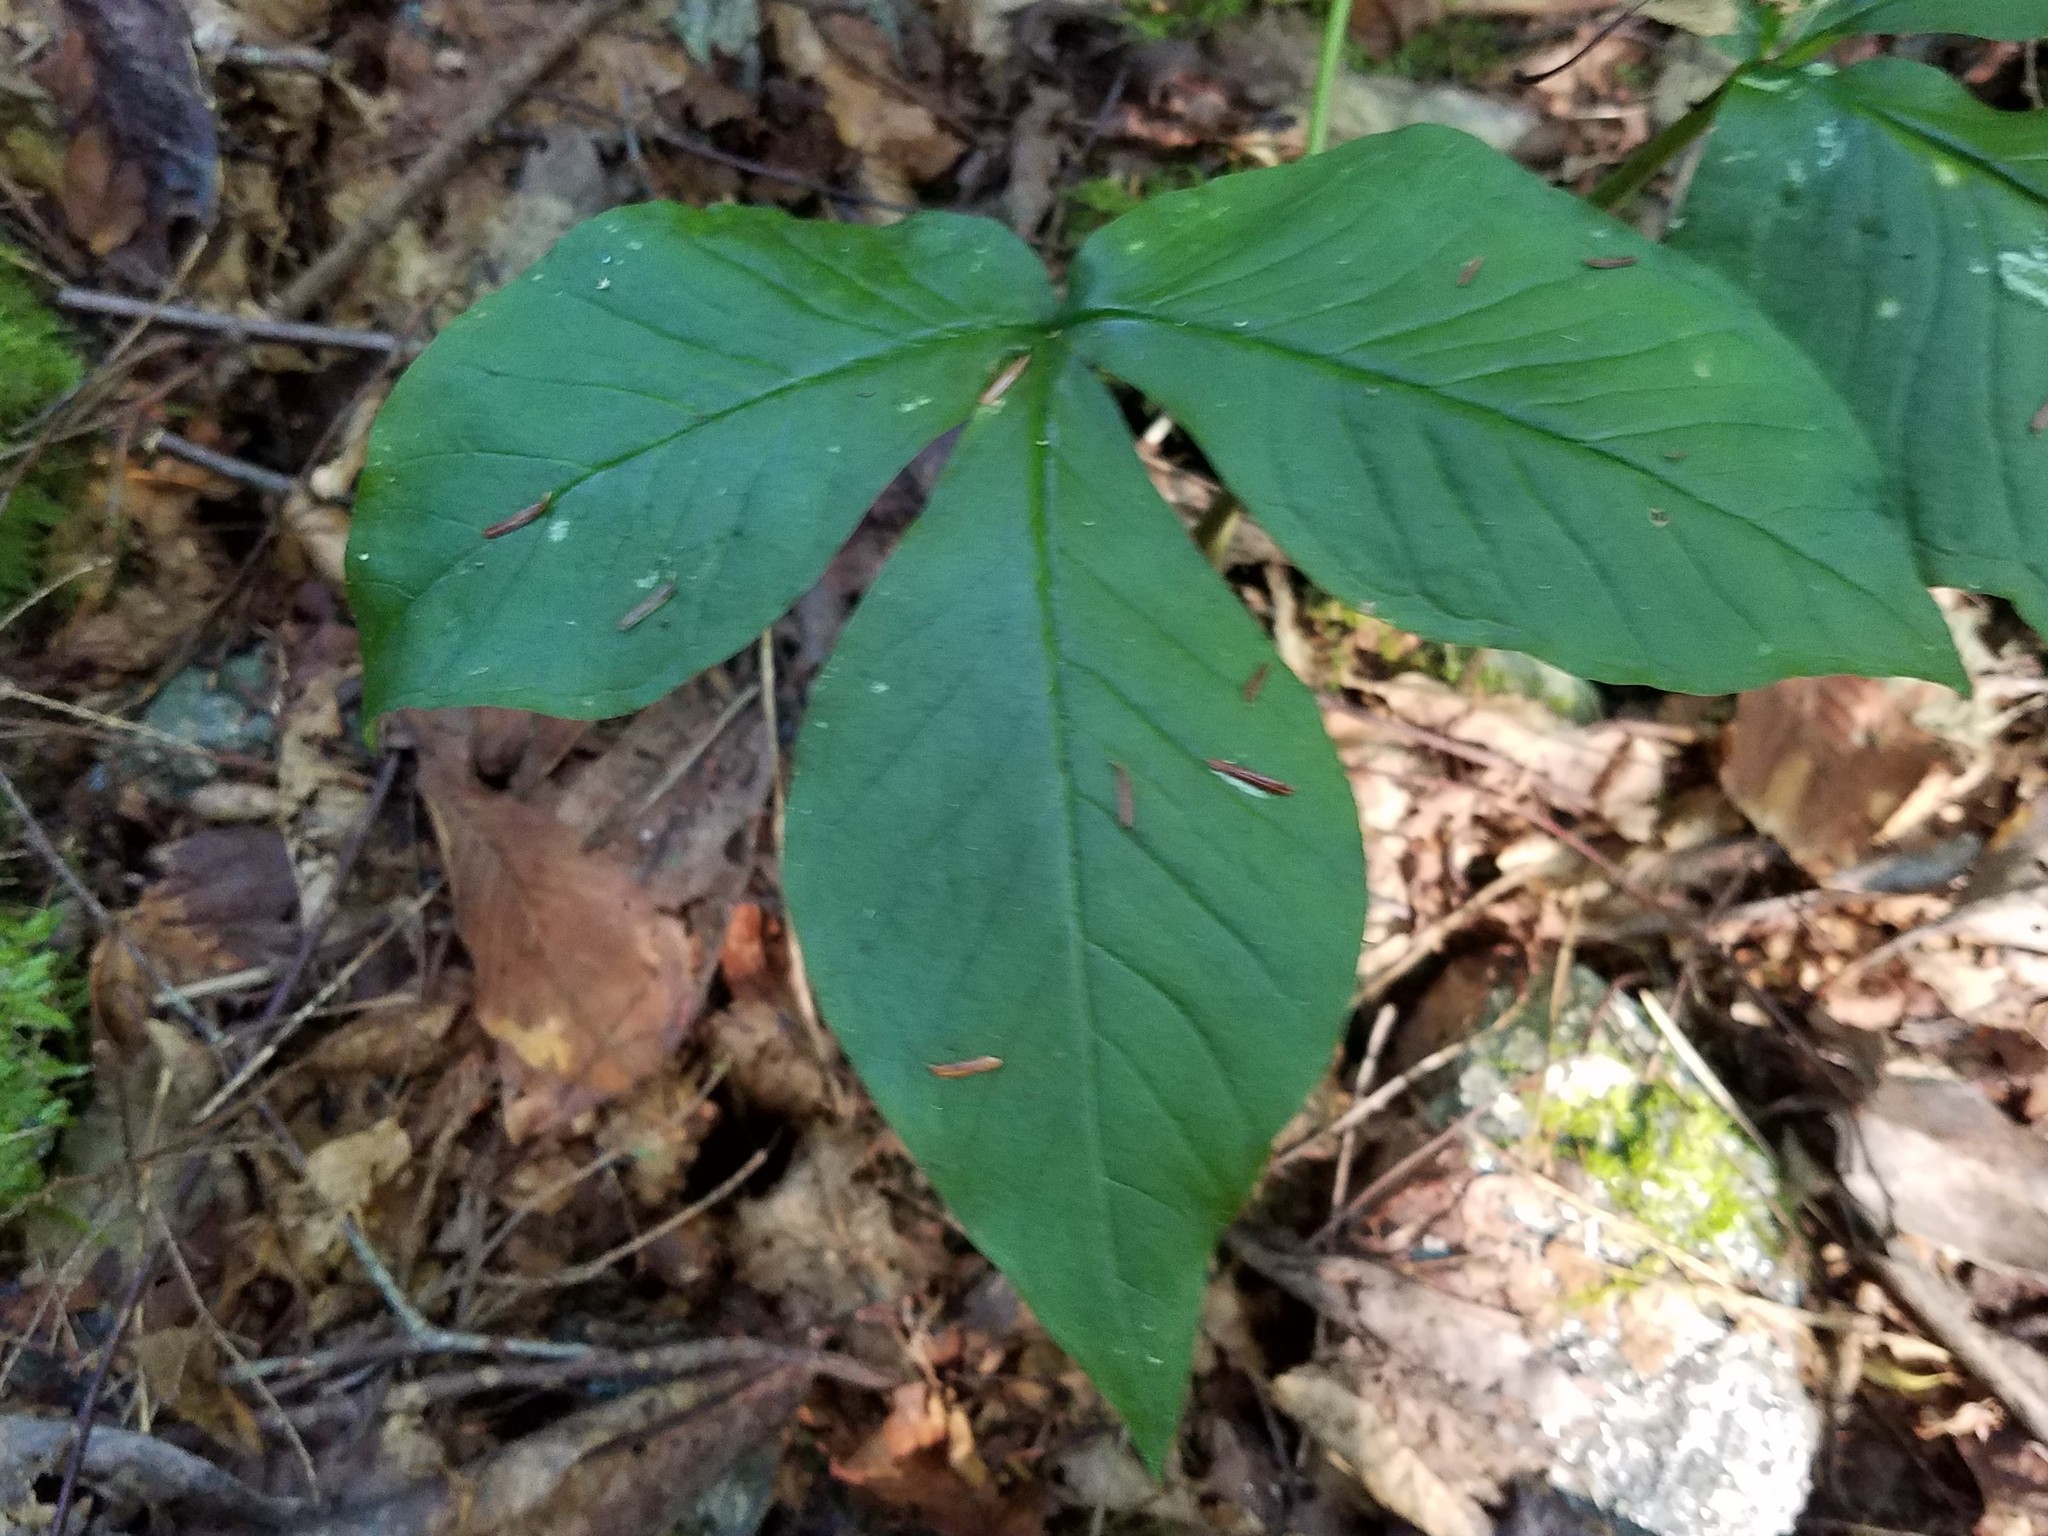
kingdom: Plantae
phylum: Tracheophyta
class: Liliopsida
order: Alismatales
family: Araceae
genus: Arisaema
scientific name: Arisaema triphyllum
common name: Jack-in-the-pulpit
